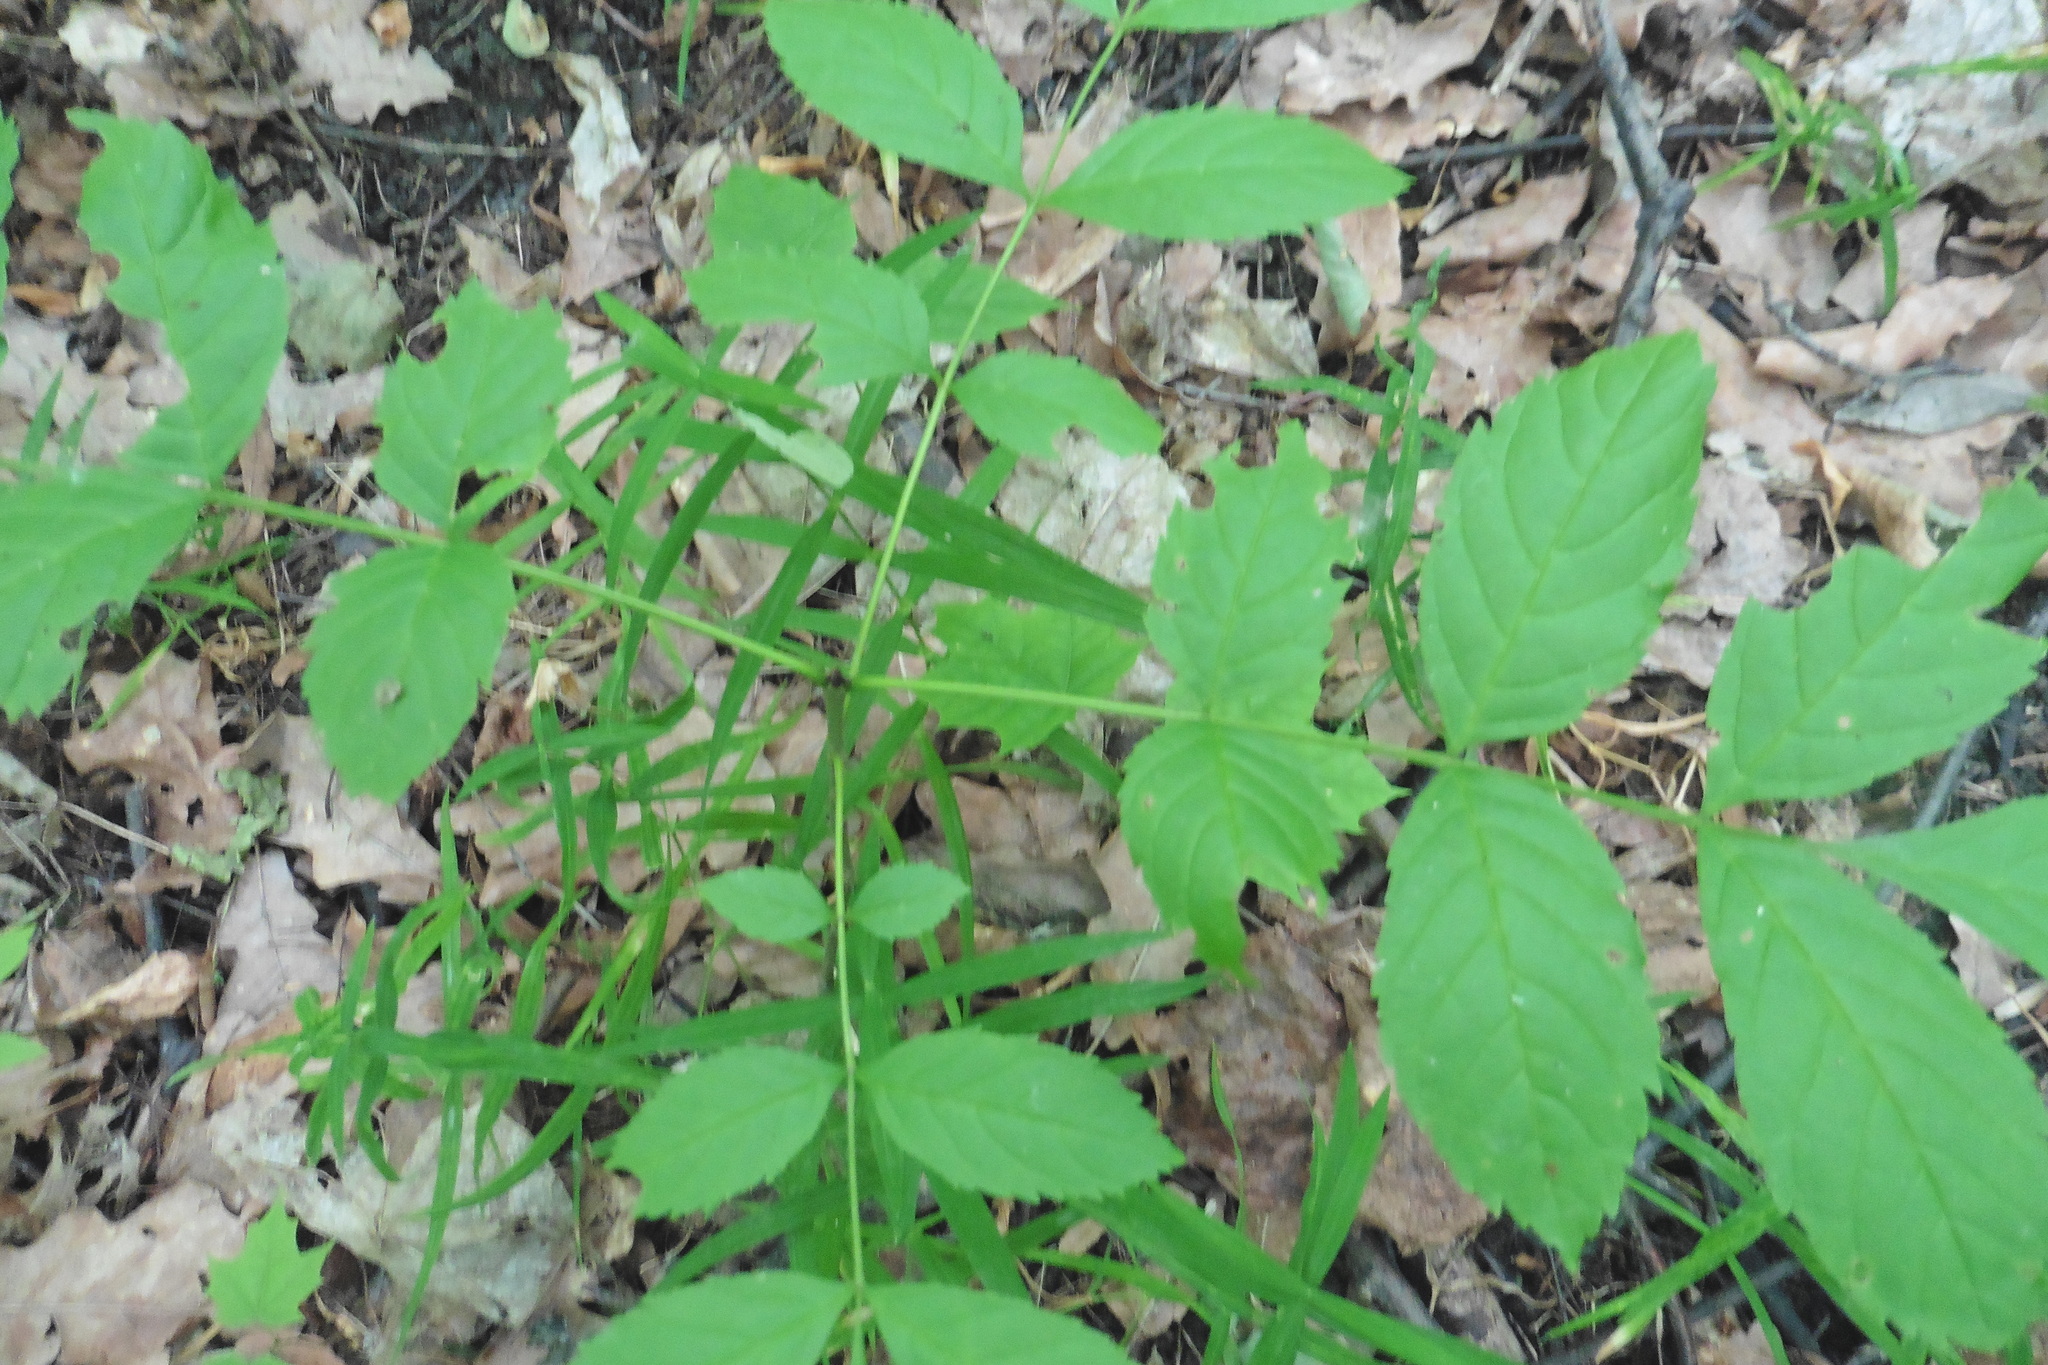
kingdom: Plantae
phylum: Tracheophyta
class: Magnoliopsida
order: Lamiales
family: Oleaceae
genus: Fraxinus
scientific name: Fraxinus excelsior
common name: European ash
